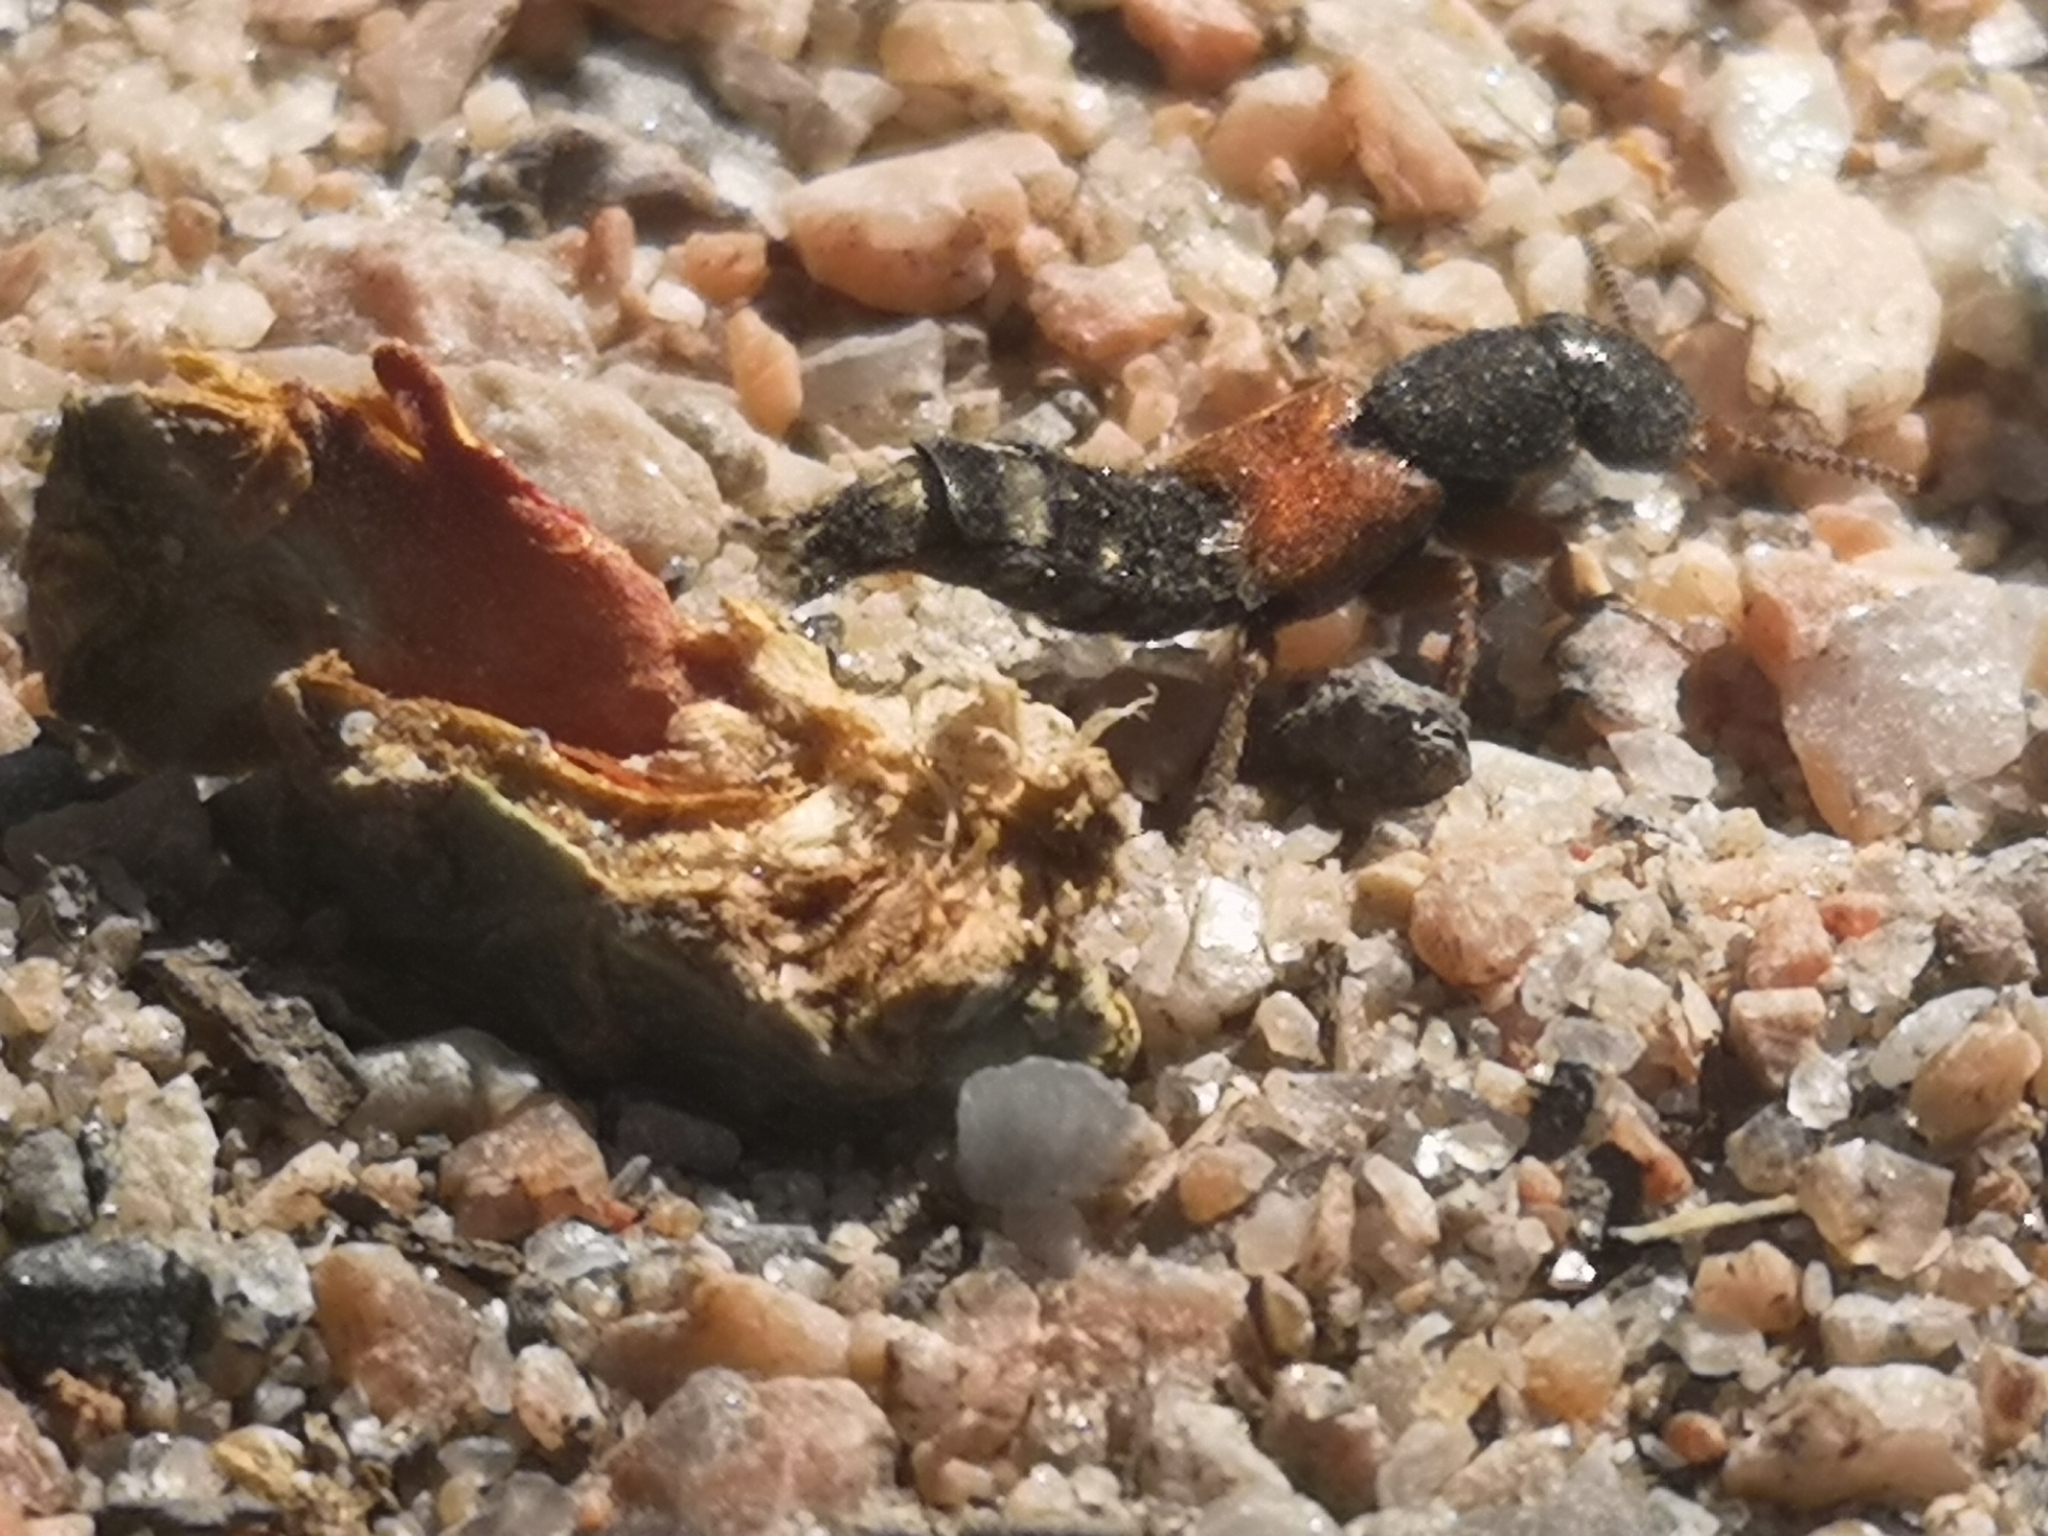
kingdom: Animalia
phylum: Arthropoda
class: Insecta
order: Coleoptera
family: Staphylinidae
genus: Platydracus
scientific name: Platydracus stercorarius
